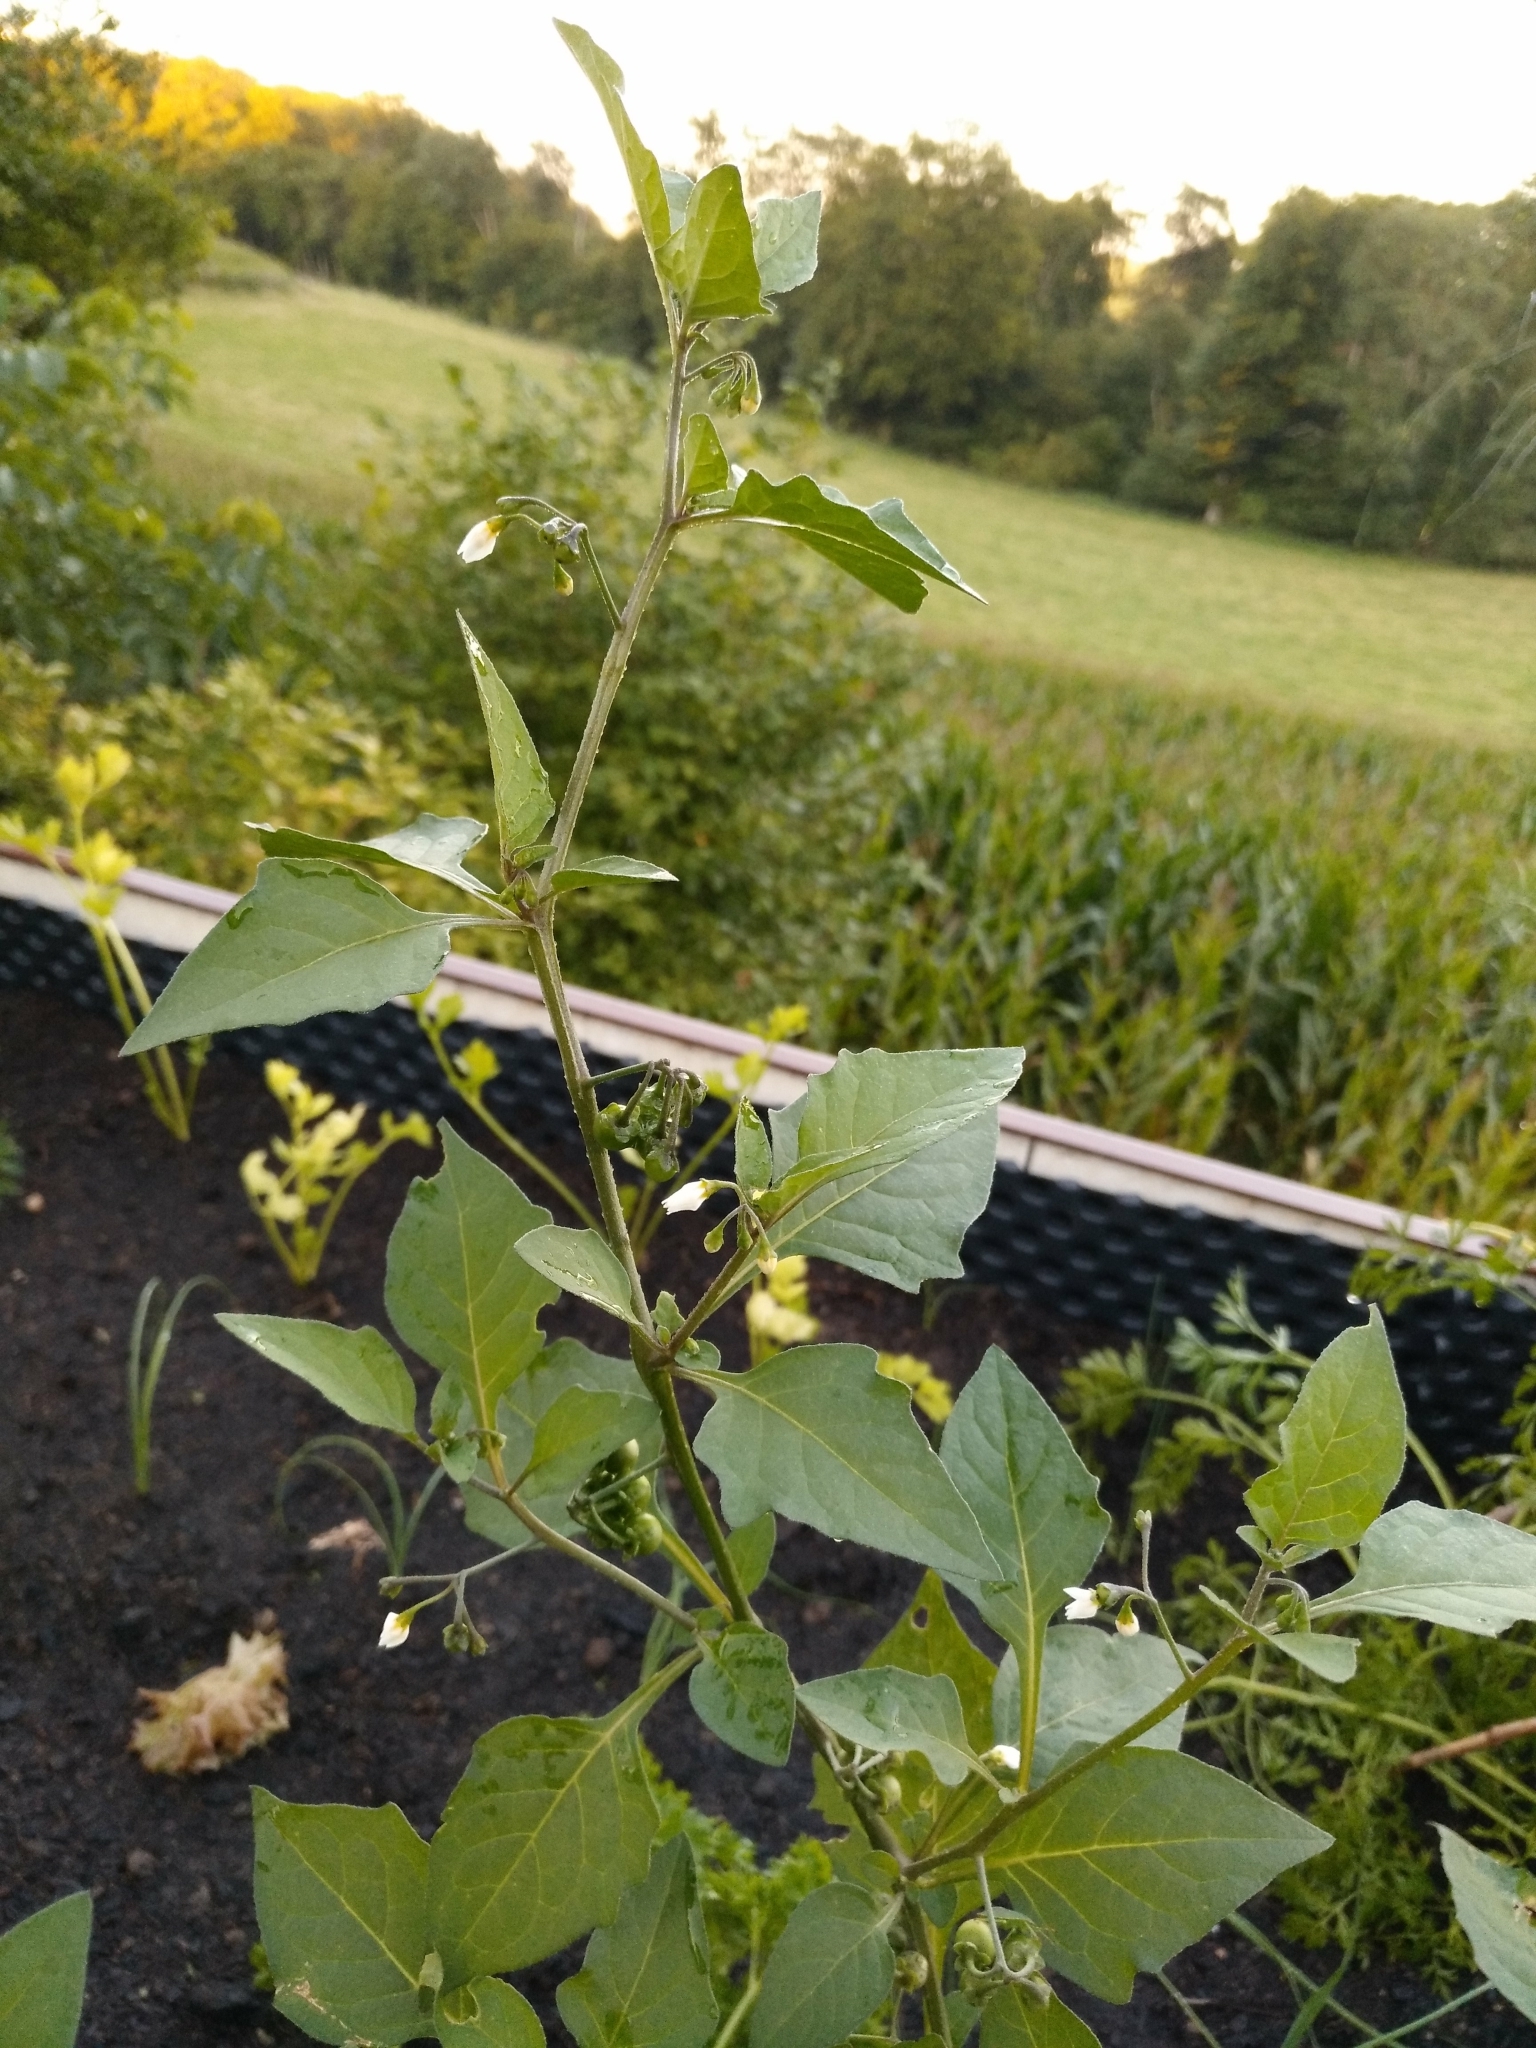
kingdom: Plantae
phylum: Tracheophyta
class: Magnoliopsida
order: Solanales
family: Solanaceae
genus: Solanum
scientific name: Solanum nigrum
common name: Black nightshade
